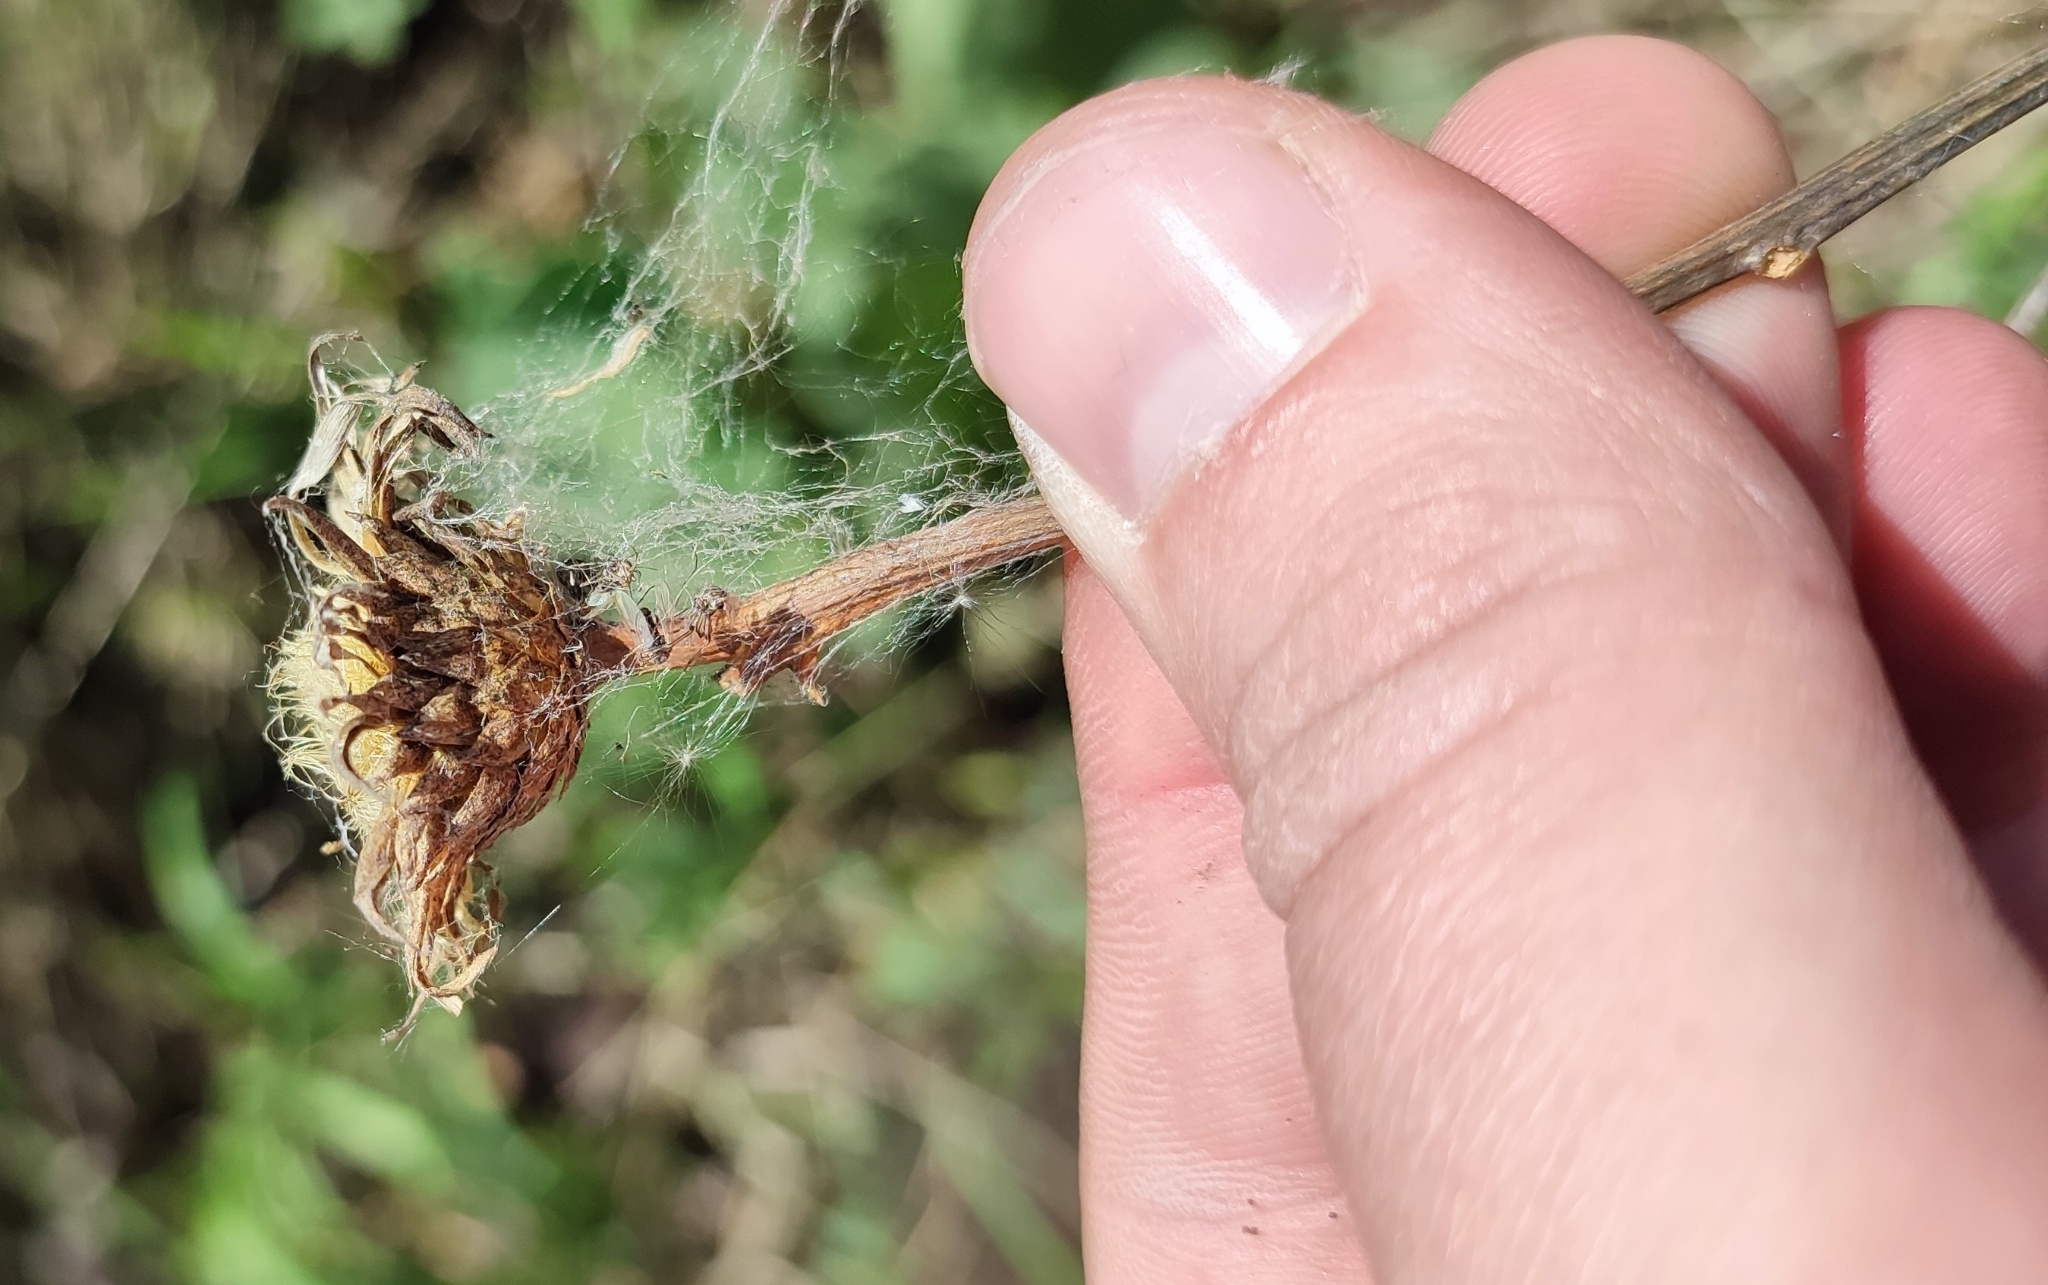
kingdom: Plantae
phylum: Tracheophyta
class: Magnoliopsida
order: Asterales
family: Asteraceae
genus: Serratula
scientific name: Serratula coronata
